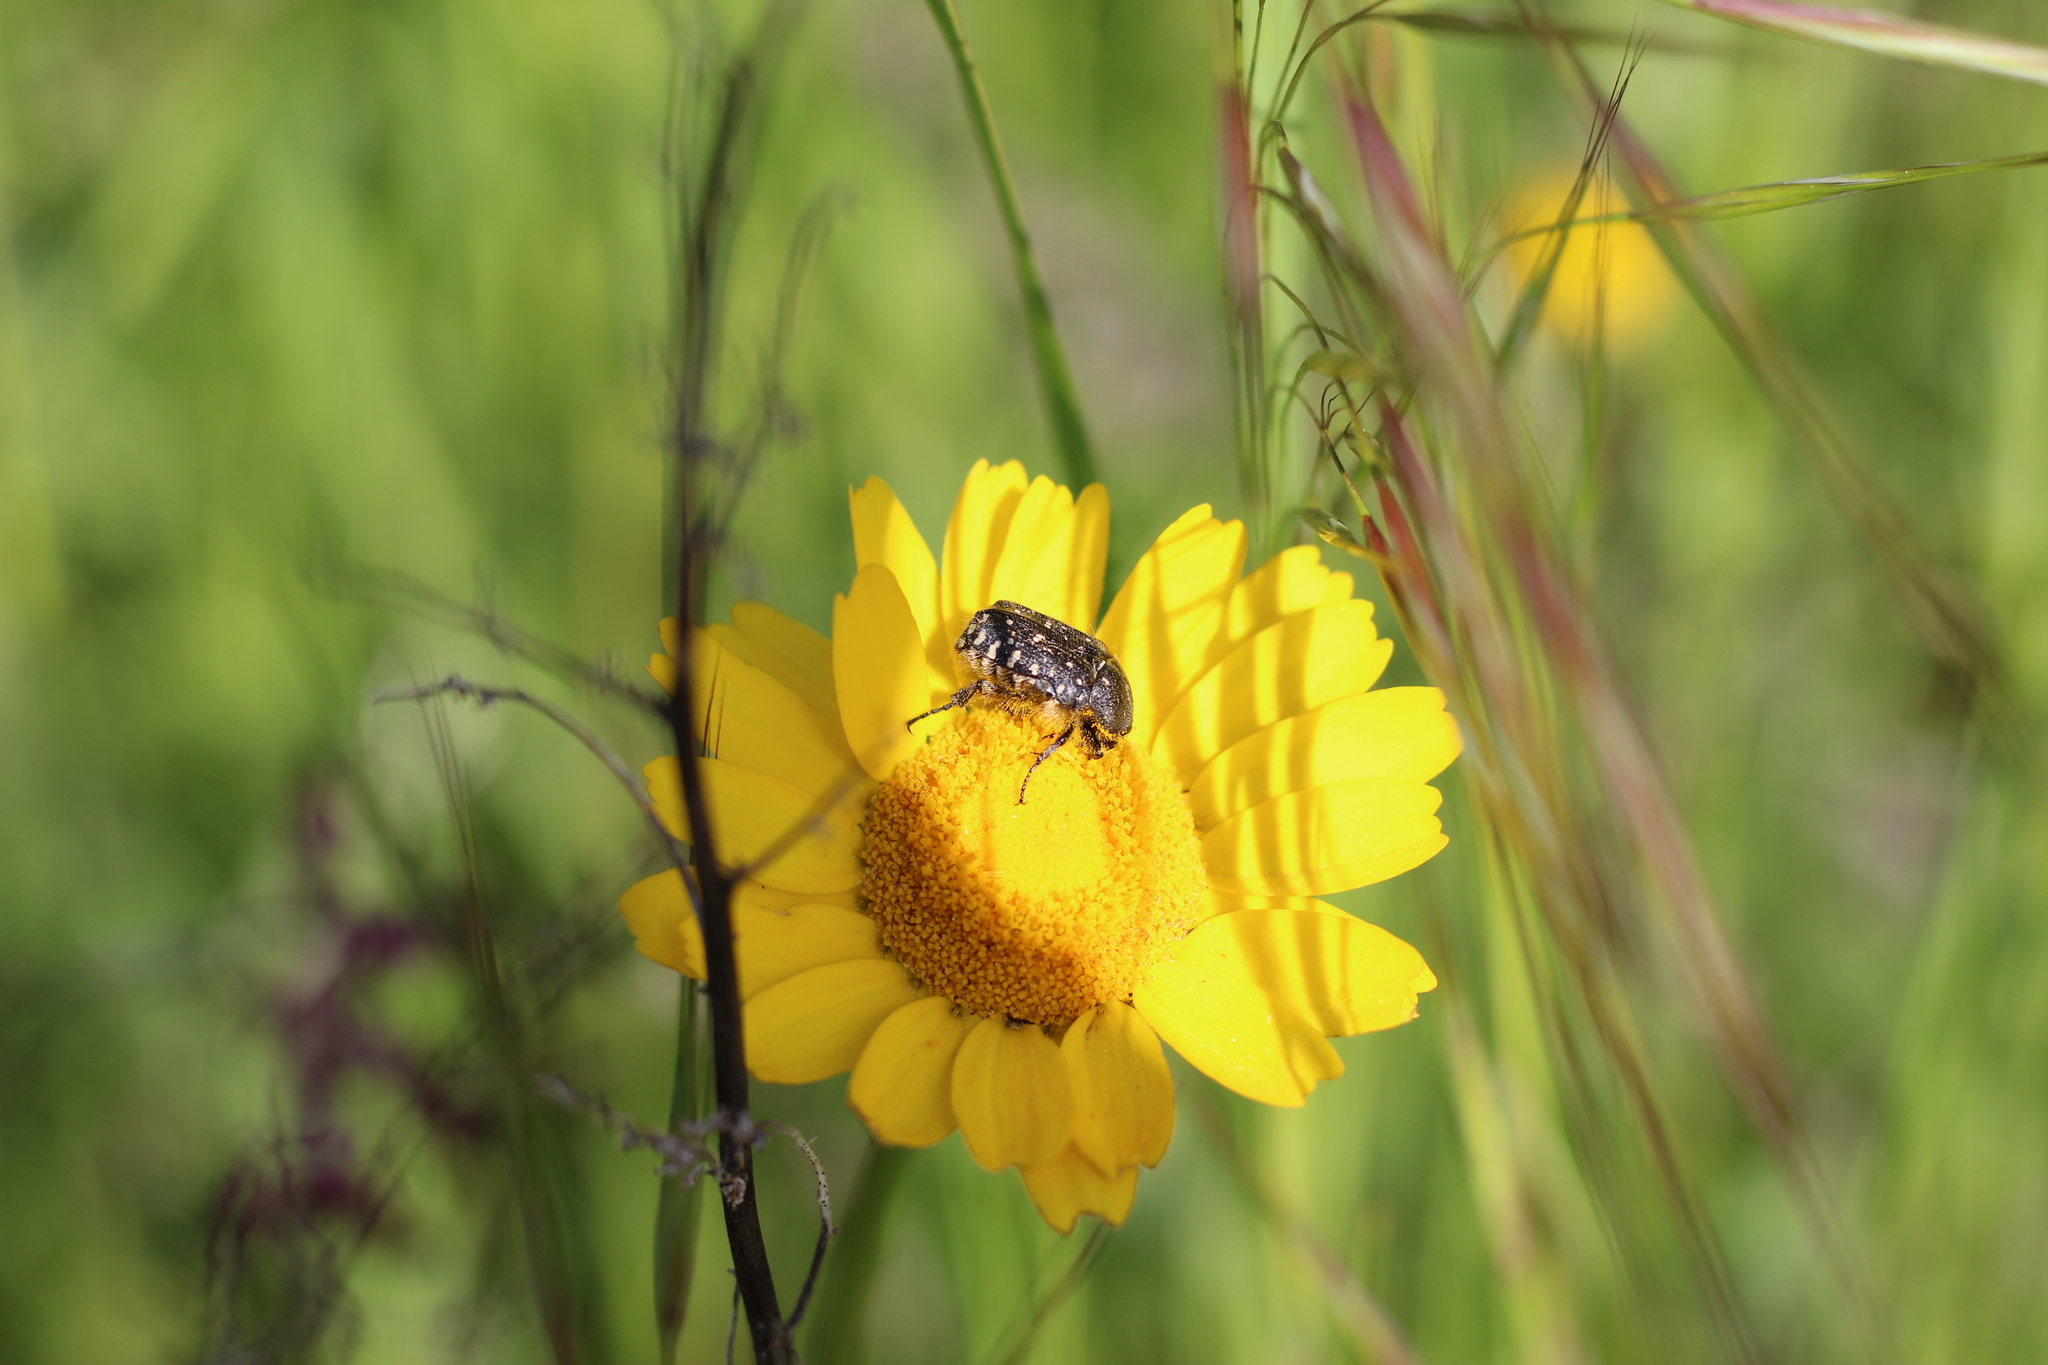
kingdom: Animalia
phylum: Arthropoda
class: Insecta
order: Coleoptera
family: Scarabaeidae
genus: Oxythyrea
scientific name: Oxythyrea funesta
